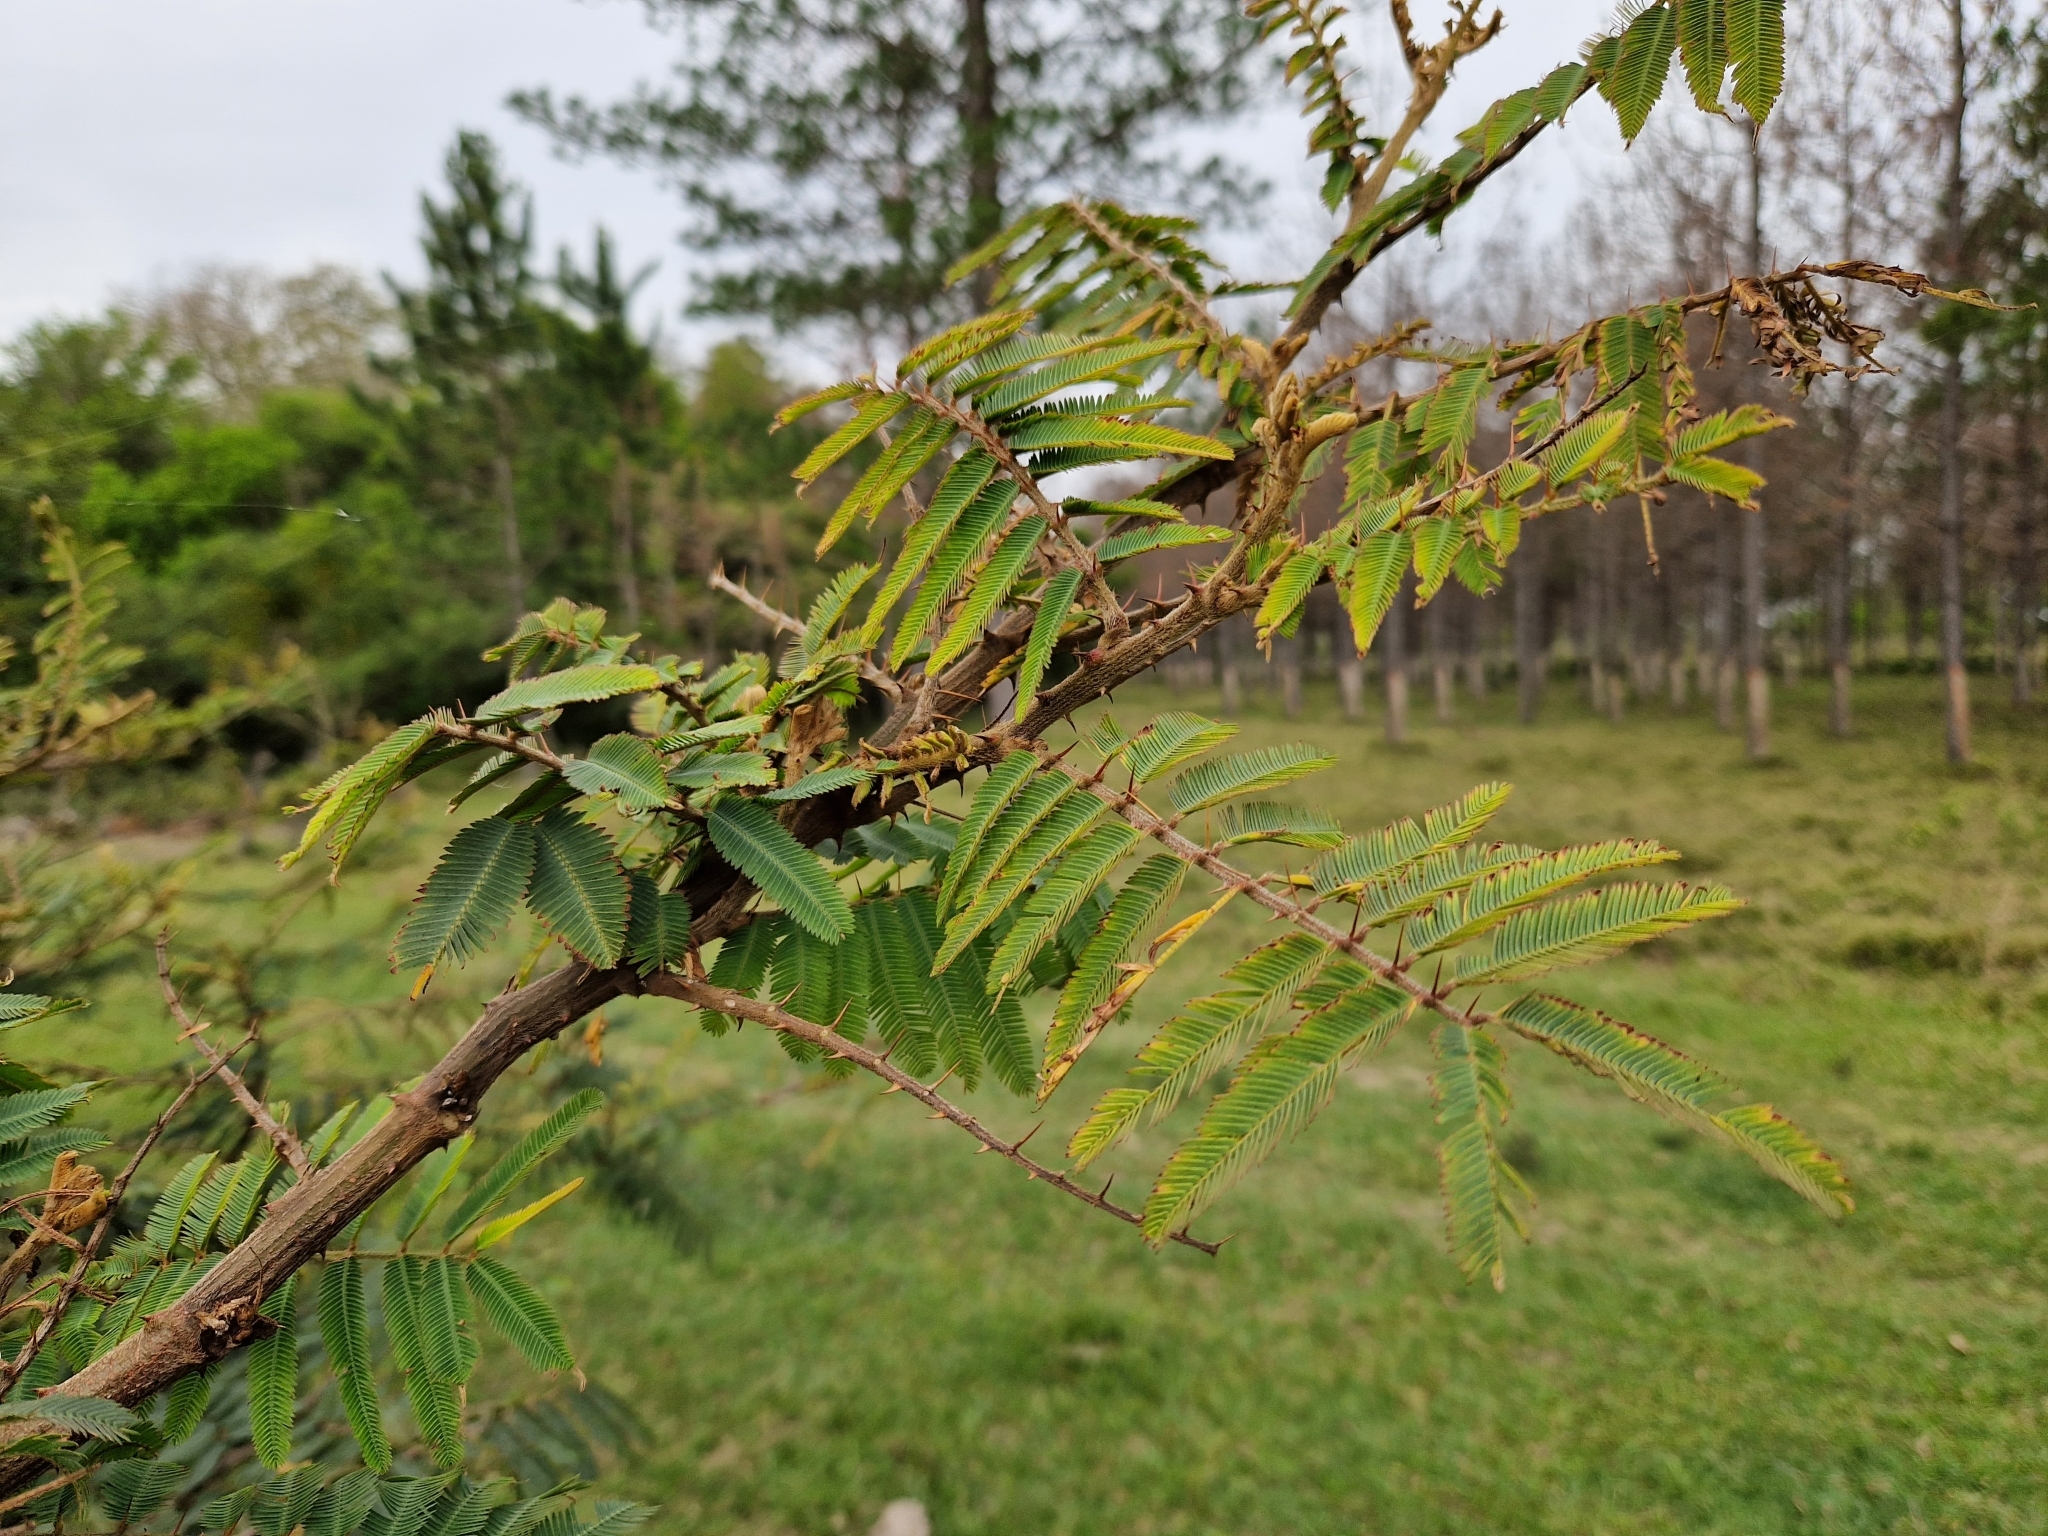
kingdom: Plantae
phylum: Tracheophyta
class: Magnoliopsida
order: Fabales
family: Fabaceae
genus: Mimosa
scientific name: Mimosa pigra
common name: Black mimosa
